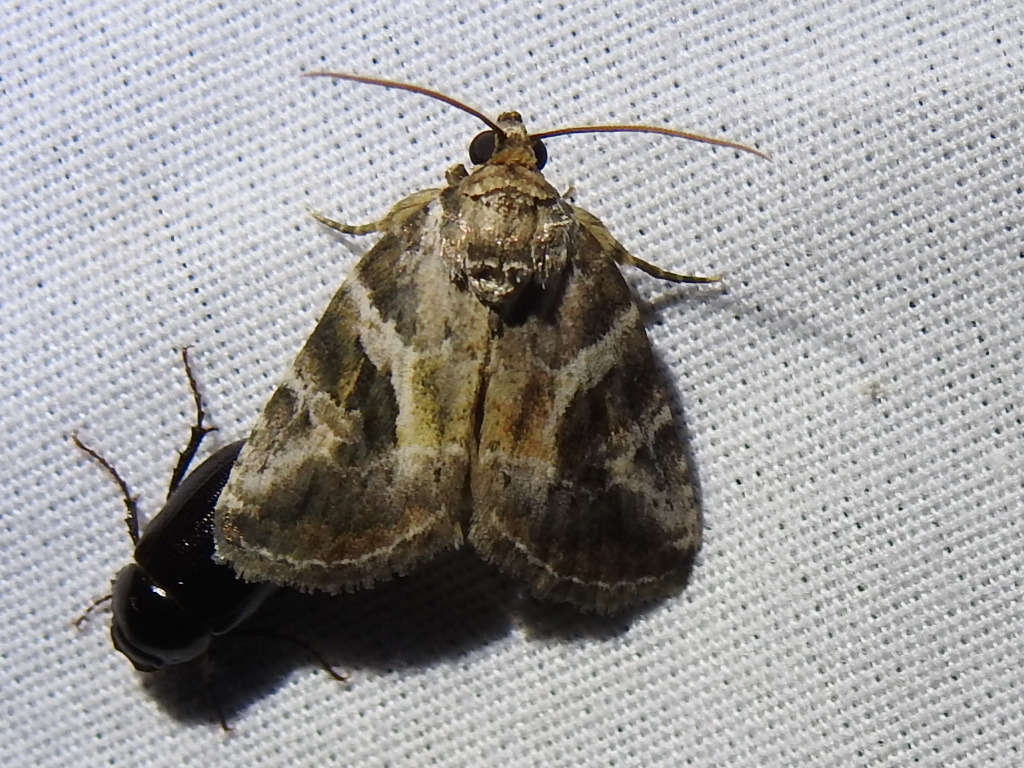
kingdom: Animalia
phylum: Arthropoda
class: Insecta
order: Lepidoptera
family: Noctuidae
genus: Diastema
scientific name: Diastema cnossia
